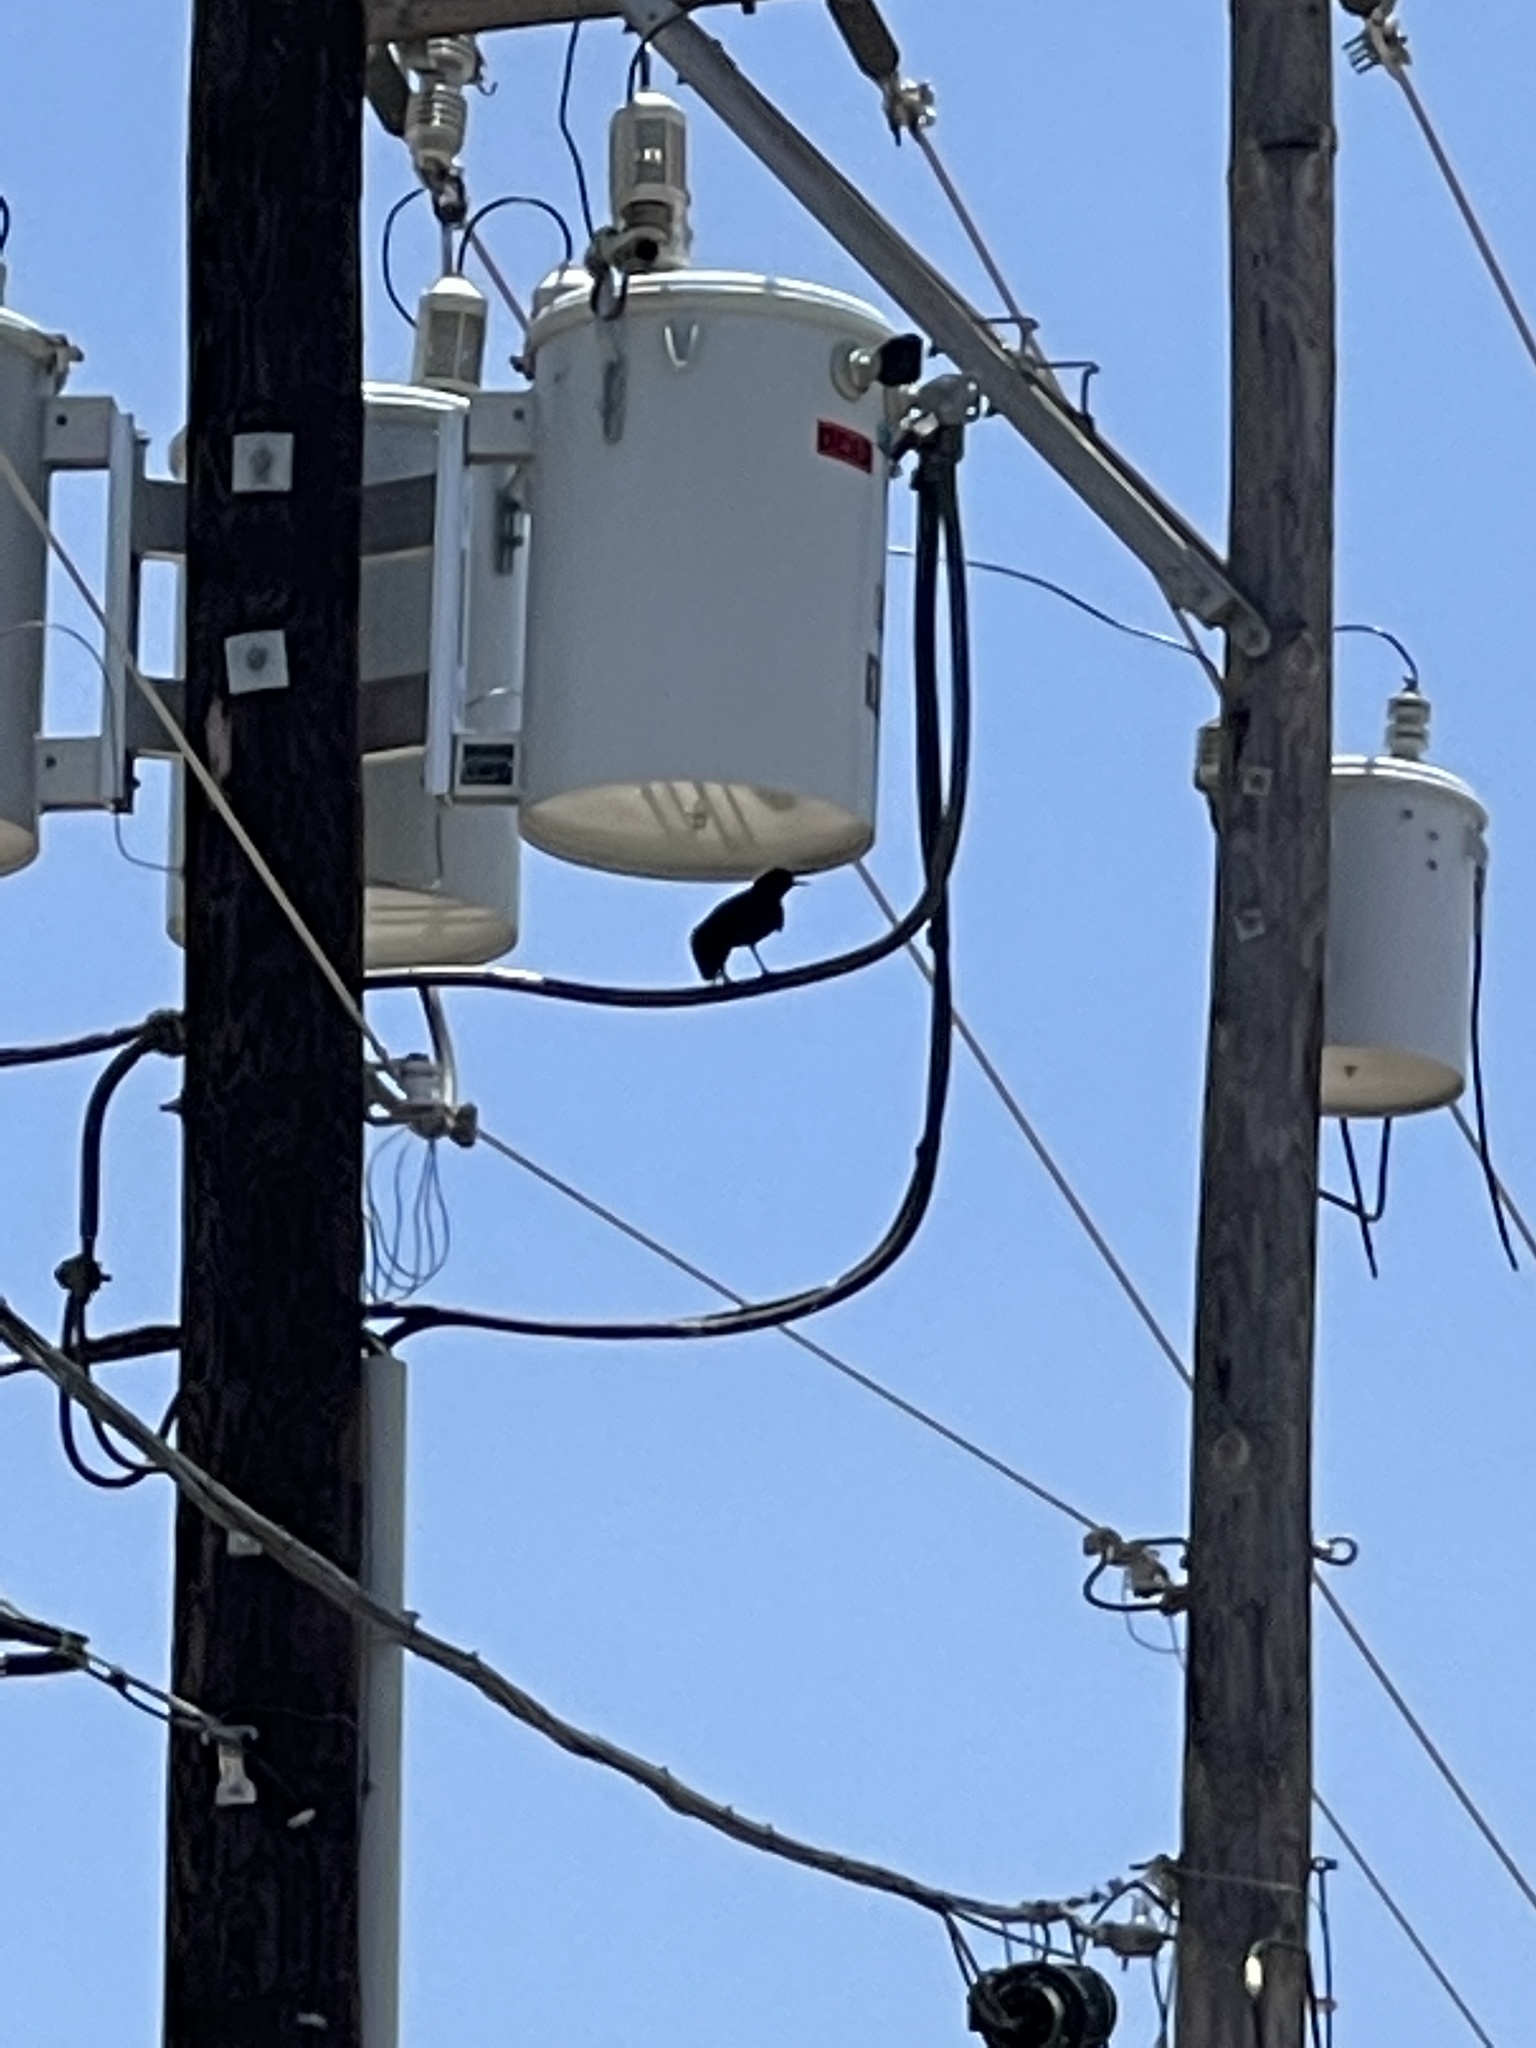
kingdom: Animalia
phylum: Chordata
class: Aves
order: Passeriformes
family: Icteridae
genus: Quiscalus
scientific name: Quiscalus mexicanus
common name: Great-tailed grackle
